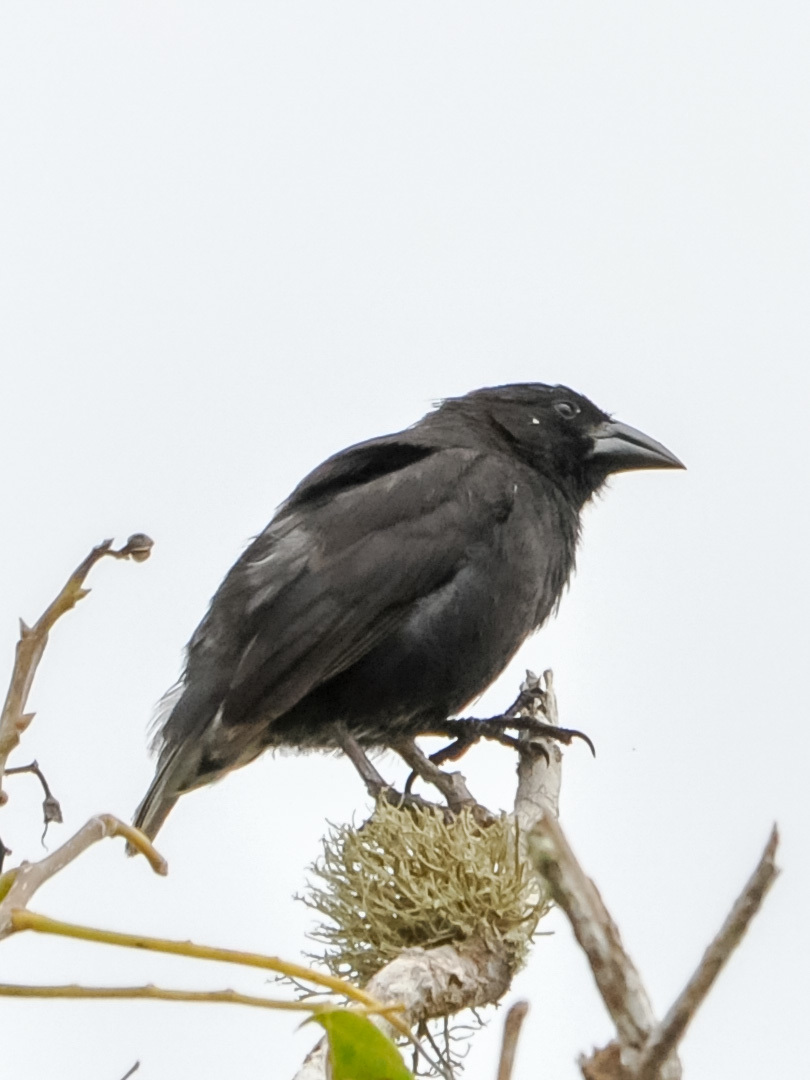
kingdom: Animalia
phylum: Chordata
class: Aves
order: Passeriformes
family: Thraupidae
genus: Geospiza
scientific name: Geospiza scandens
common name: Common cactus-finch
